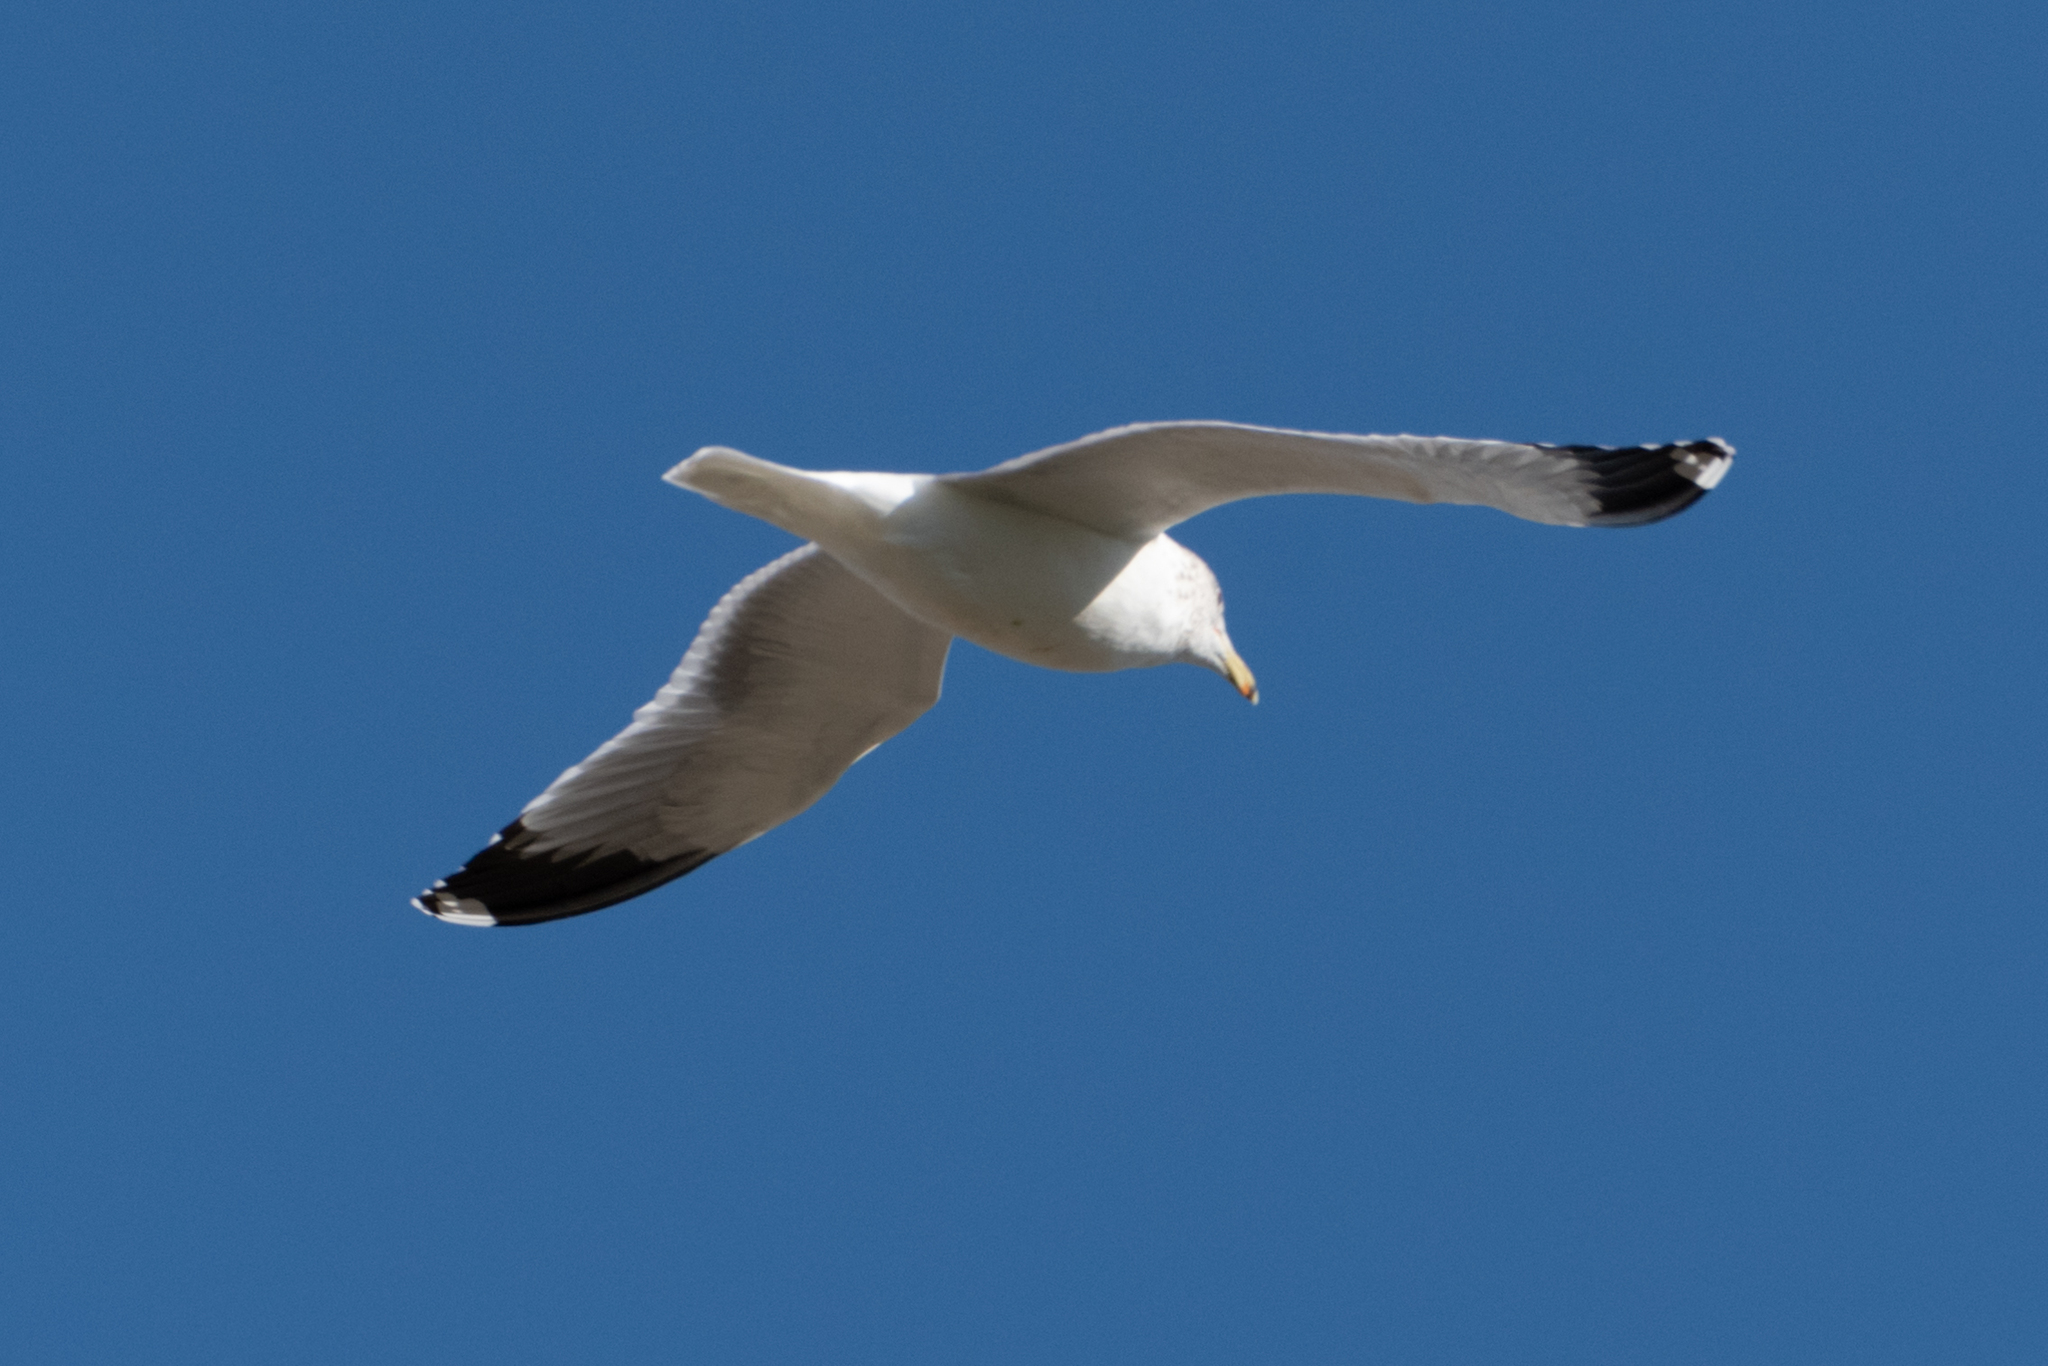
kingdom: Animalia
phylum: Chordata
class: Aves
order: Charadriiformes
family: Laridae
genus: Larus
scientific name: Larus californicus
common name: California gull
